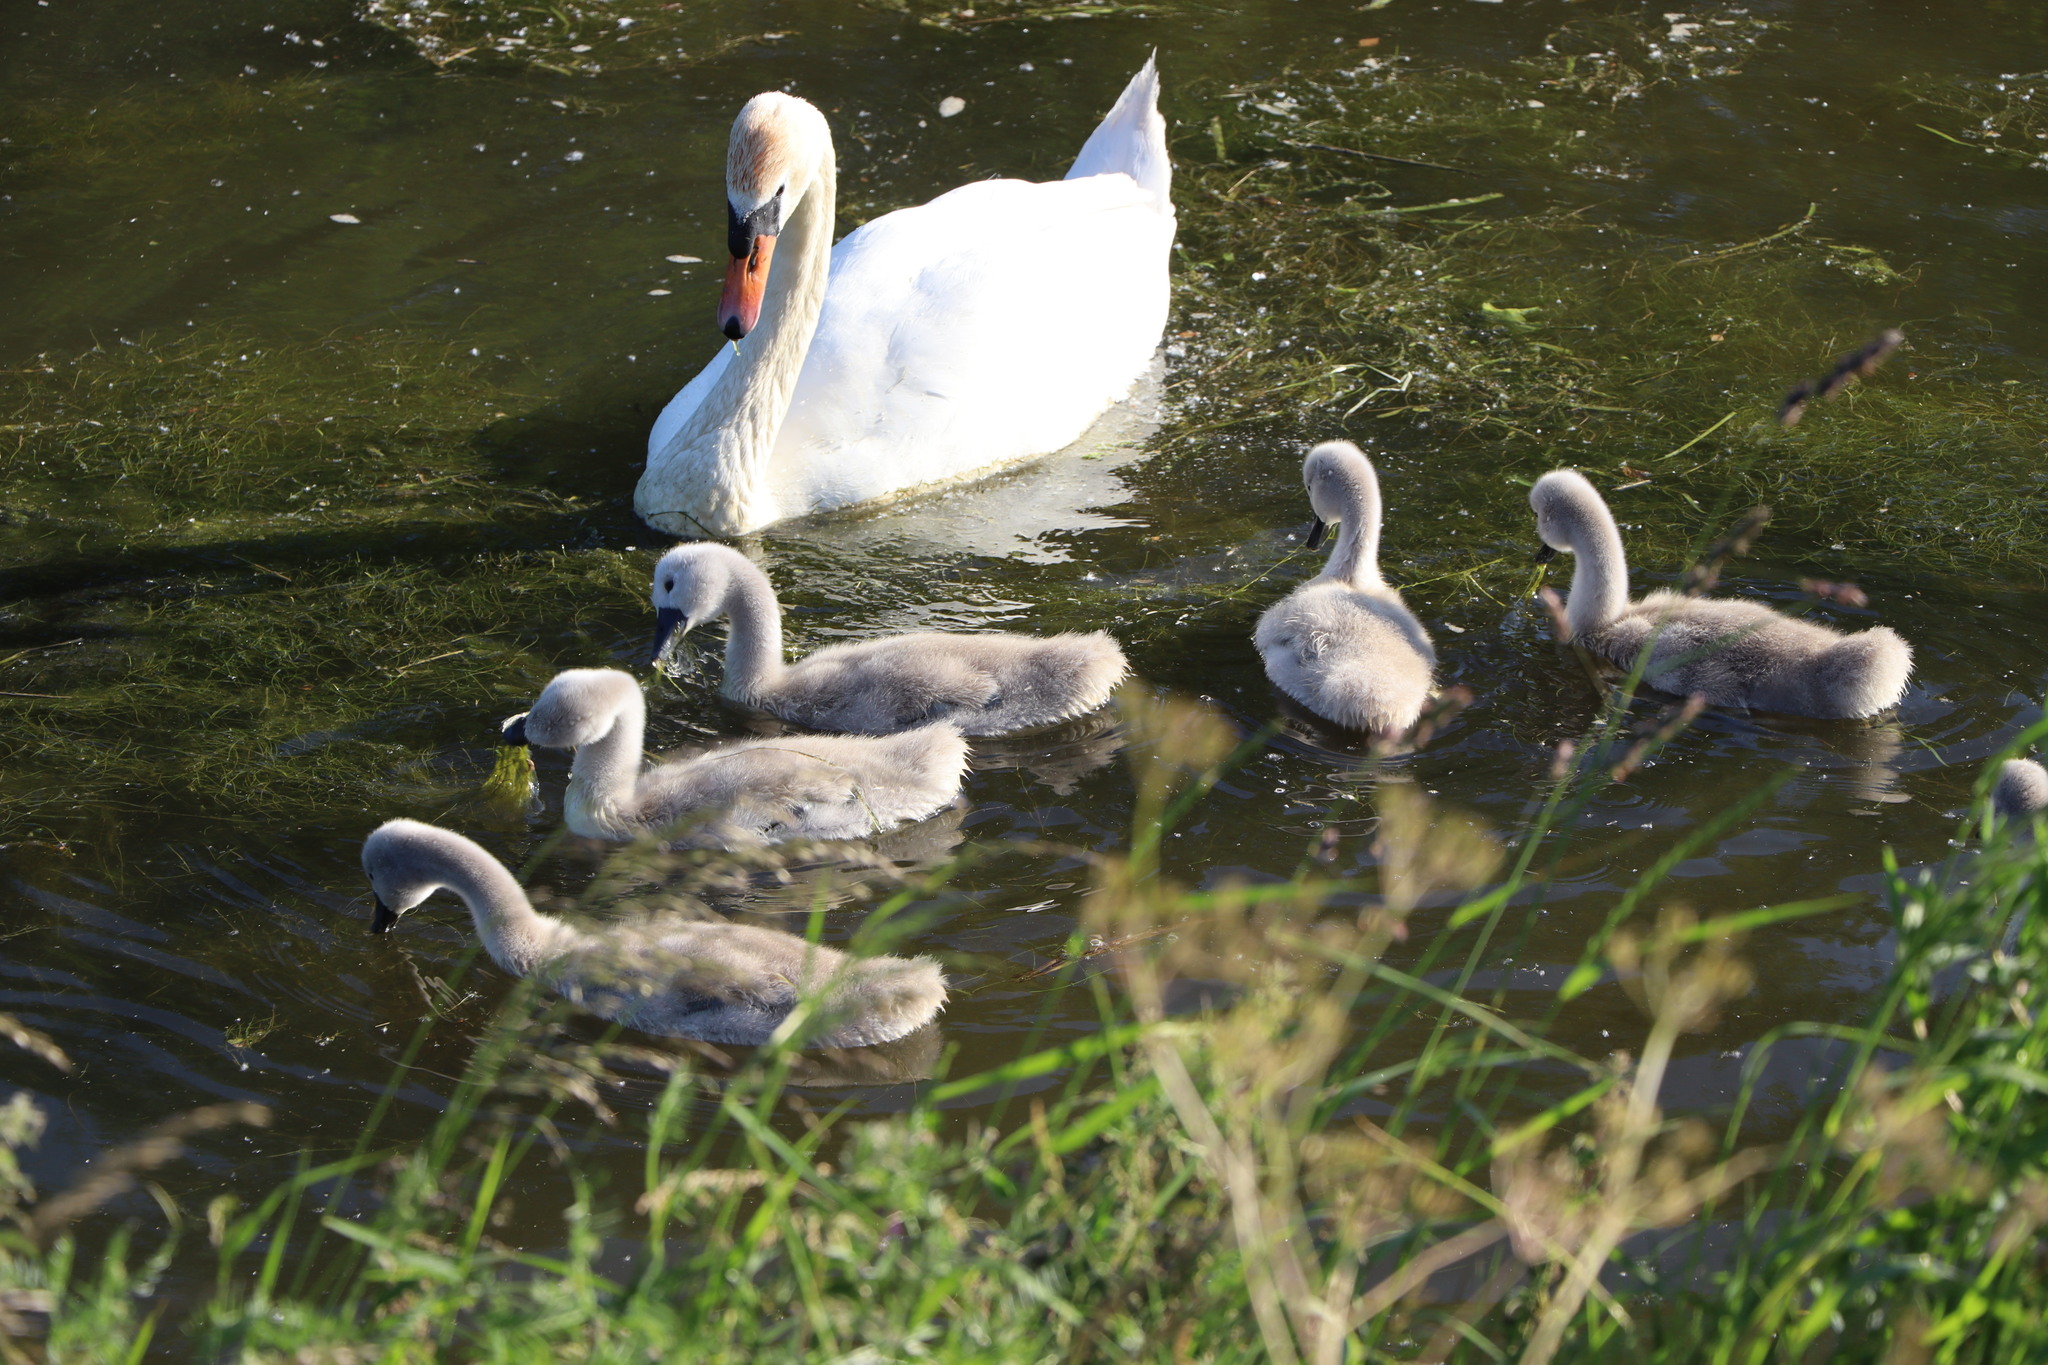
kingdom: Animalia
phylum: Chordata
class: Aves
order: Anseriformes
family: Anatidae
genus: Cygnus
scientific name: Cygnus olor
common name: Mute swan
